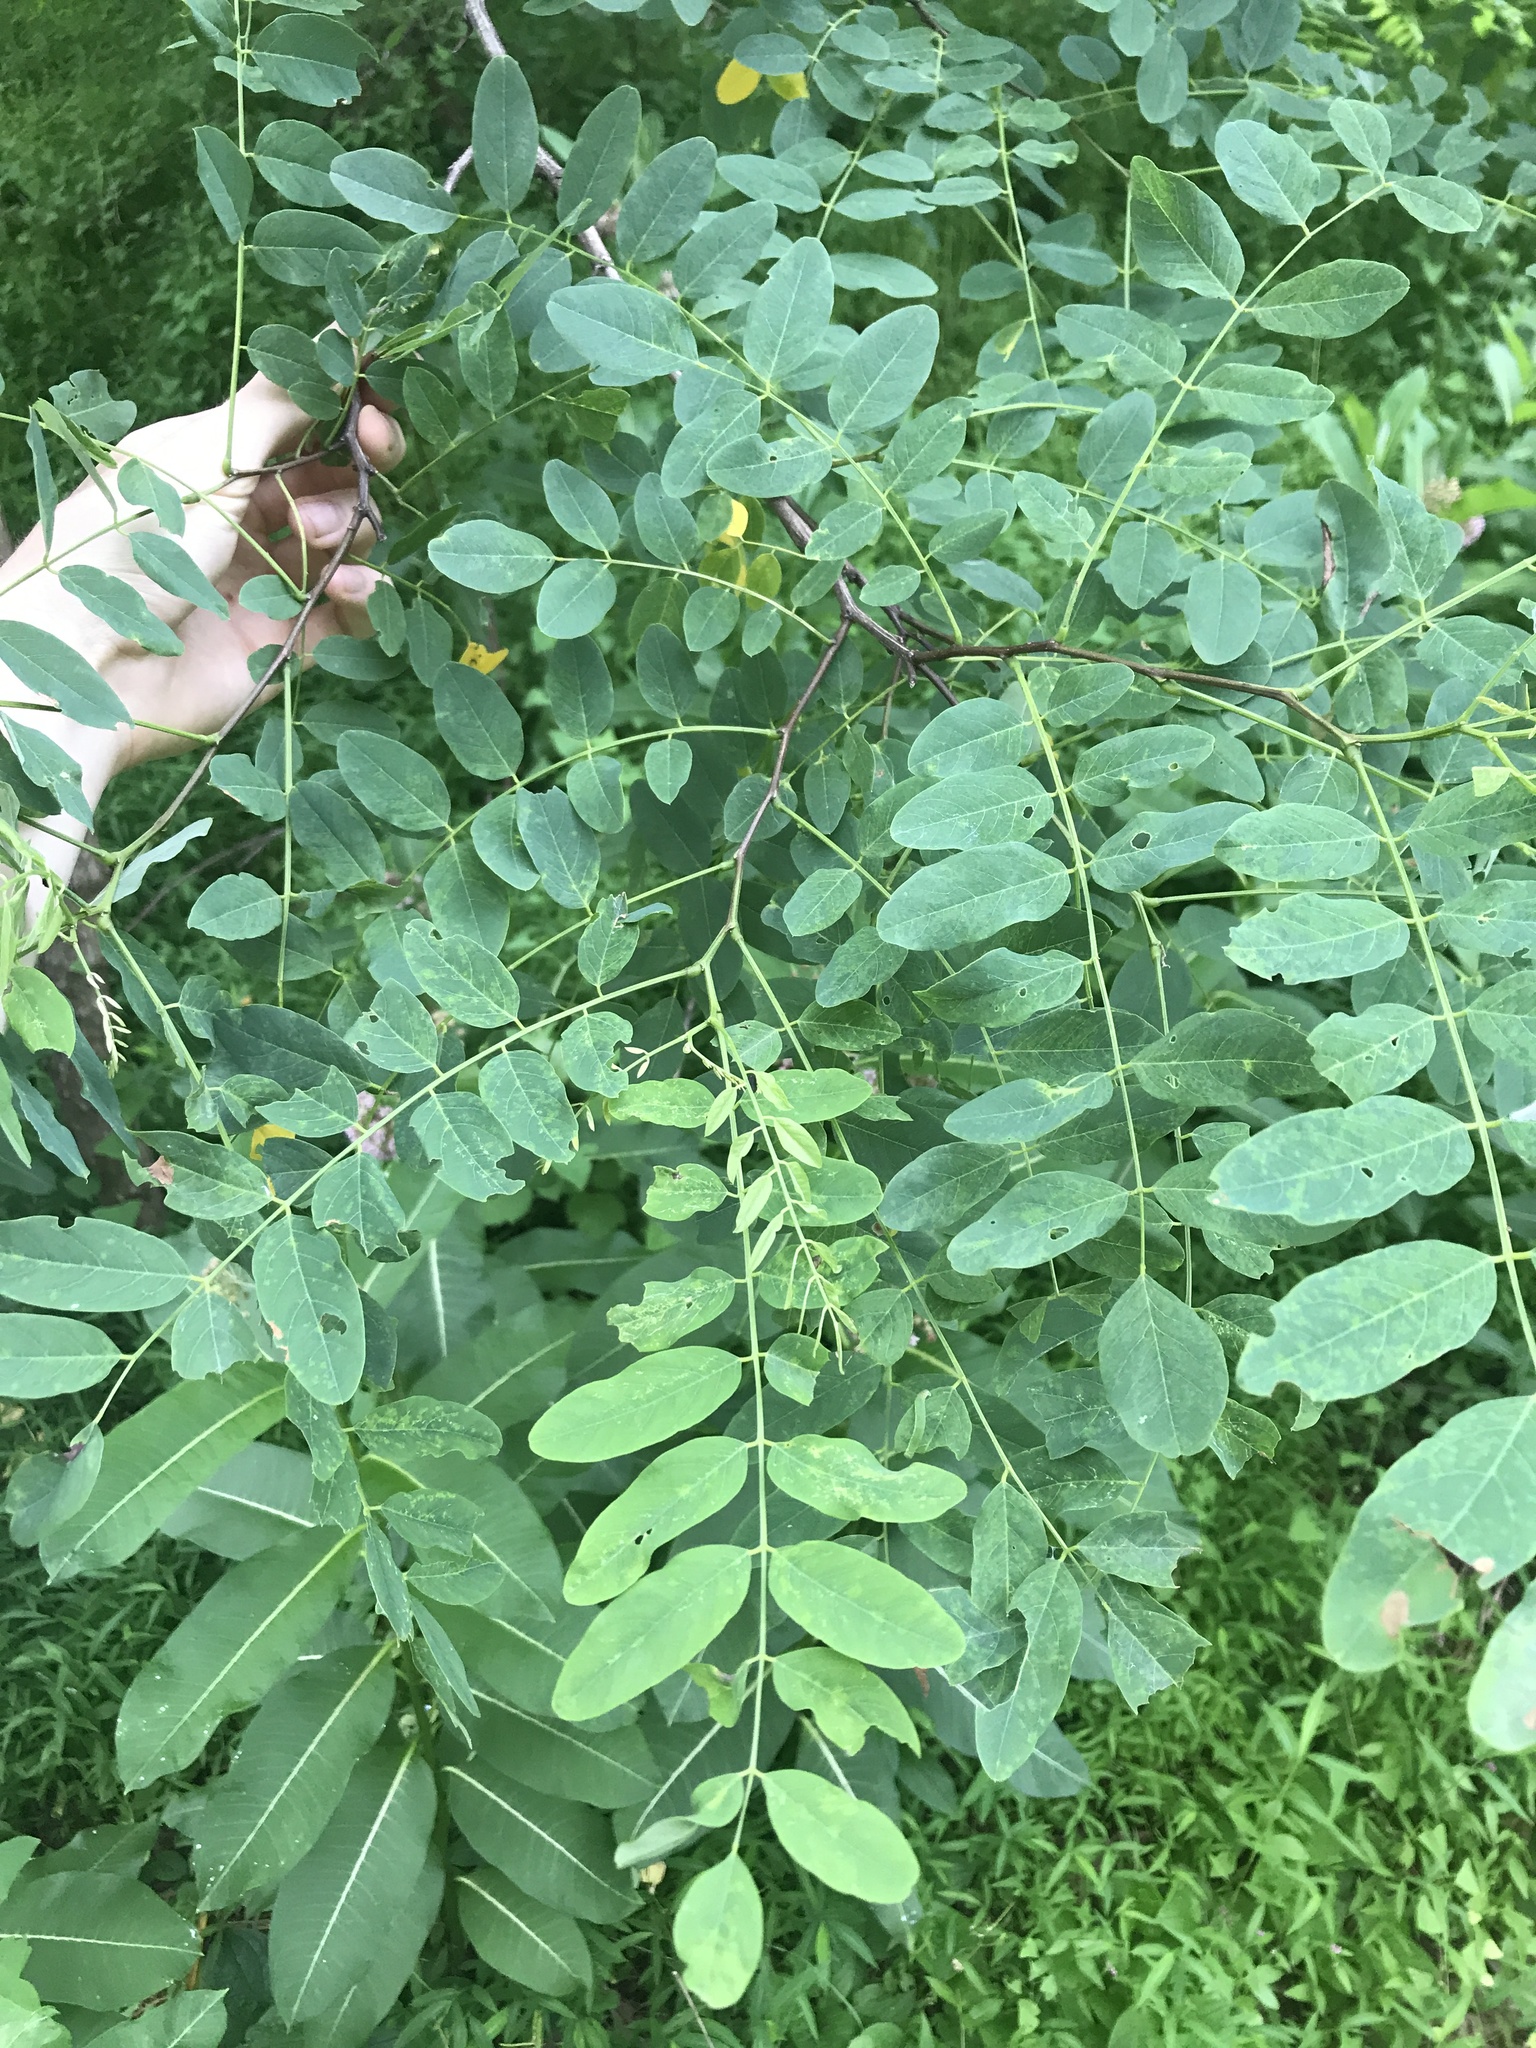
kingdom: Plantae
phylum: Tracheophyta
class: Magnoliopsida
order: Fabales
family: Fabaceae
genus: Robinia
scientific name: Robinia pseudoacacia
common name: Black locust
